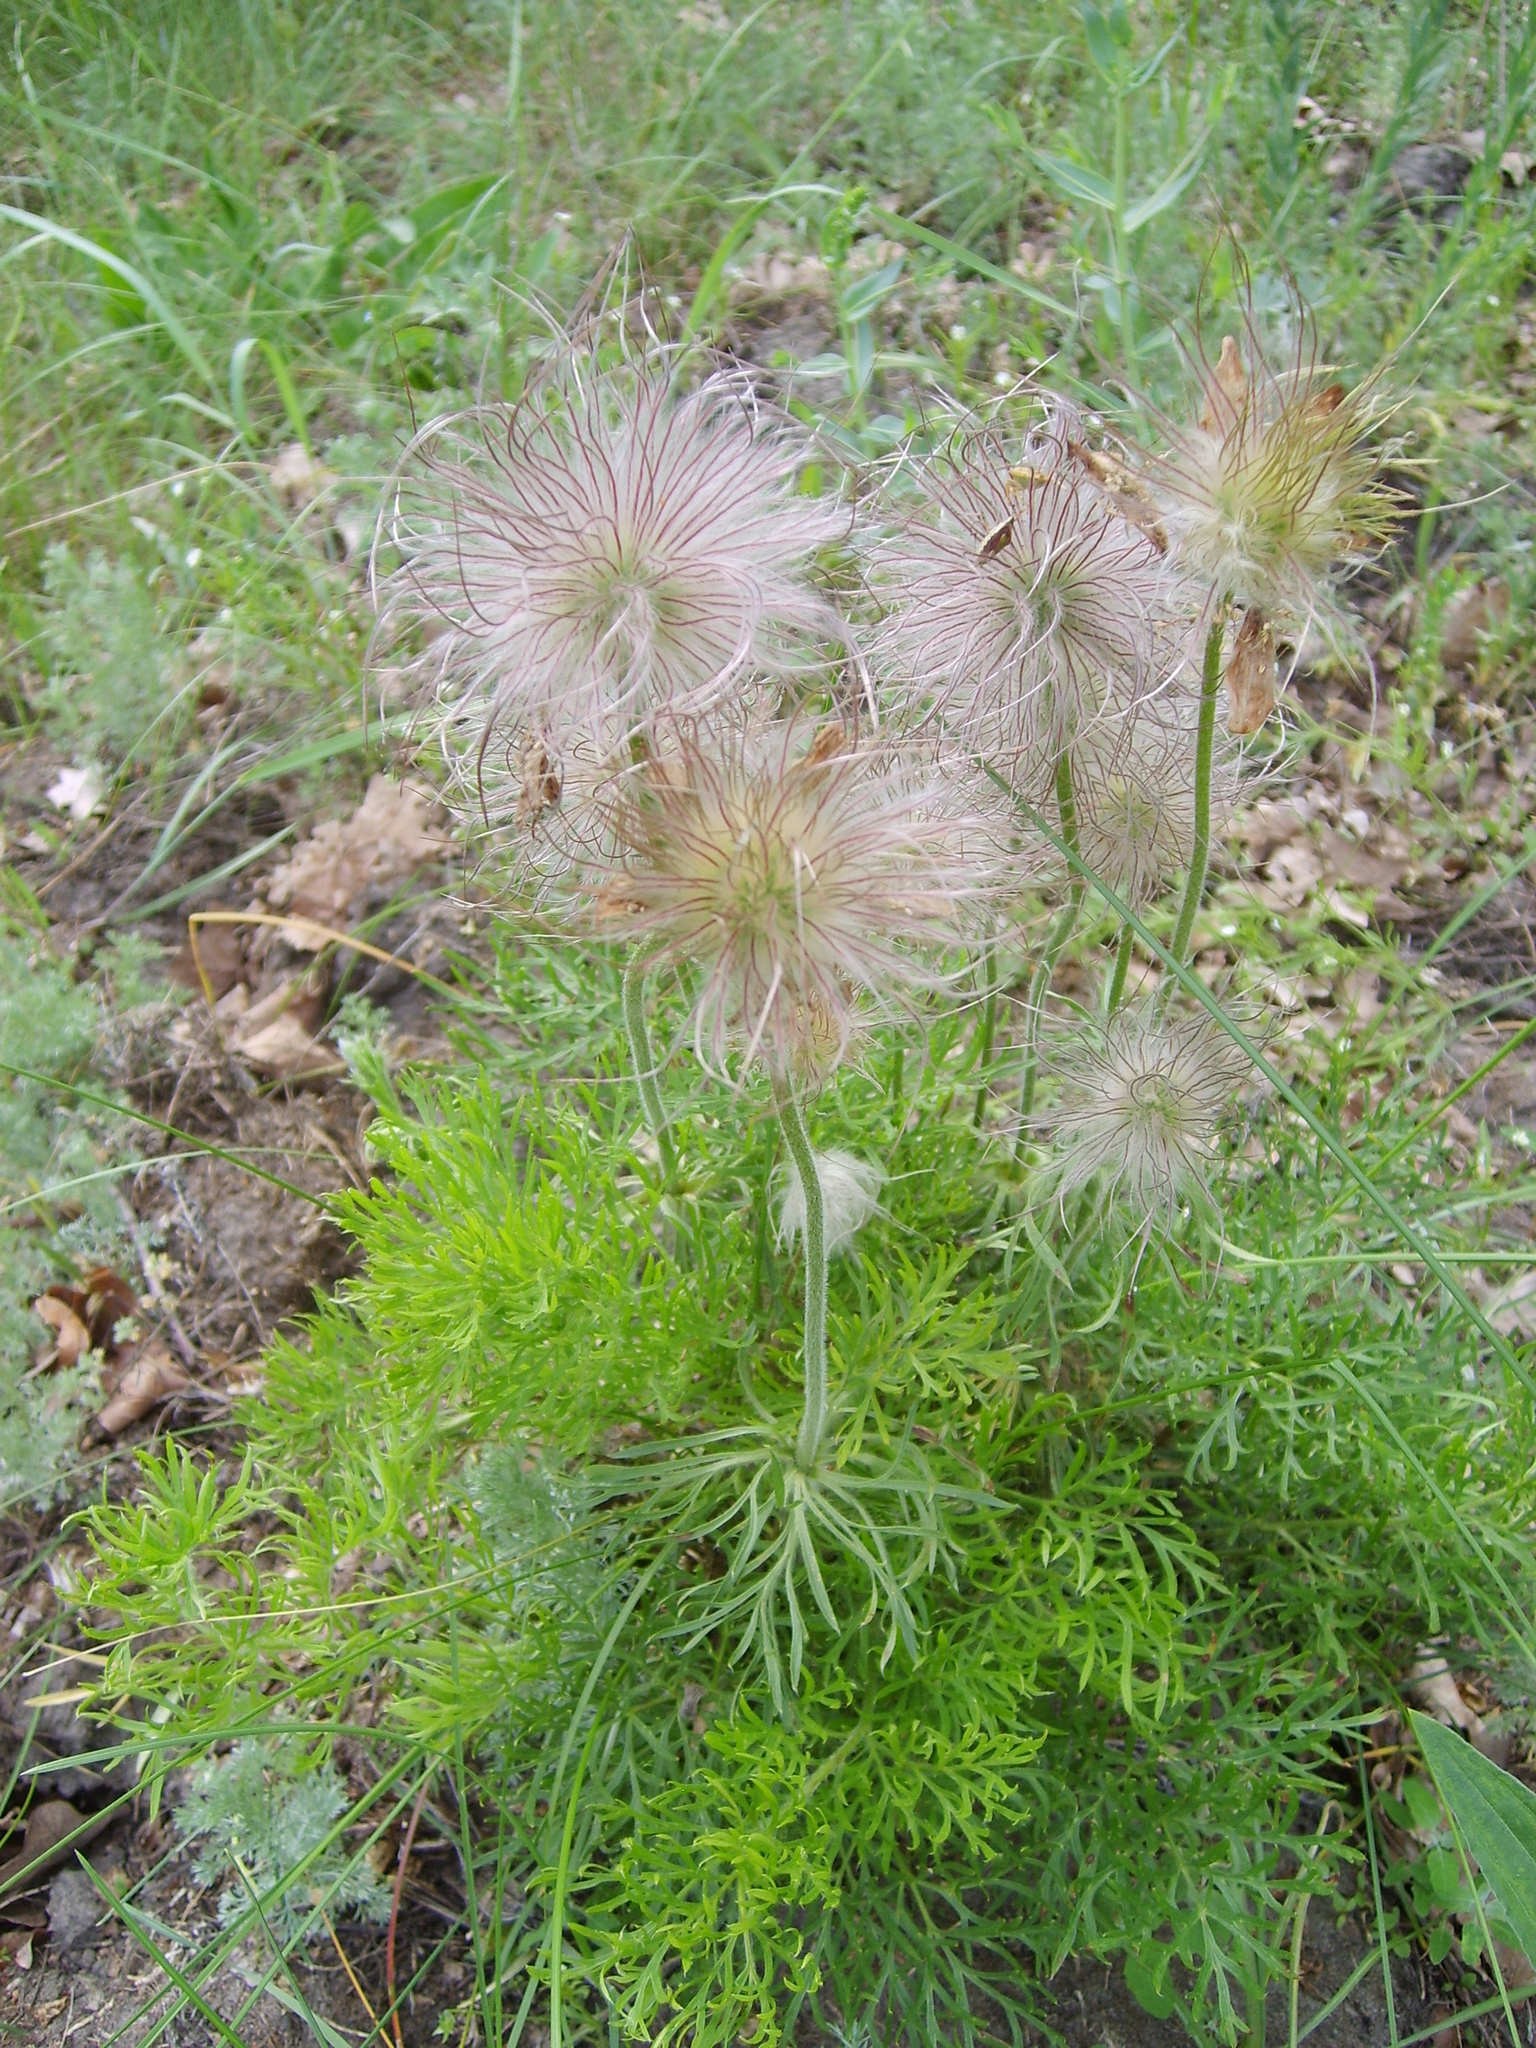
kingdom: Plantae
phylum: Tracheophyta
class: Magnoliopsida
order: Ranunculales
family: Ranunculaceae
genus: Pulsatilla
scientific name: Pulsatilla pratensis
